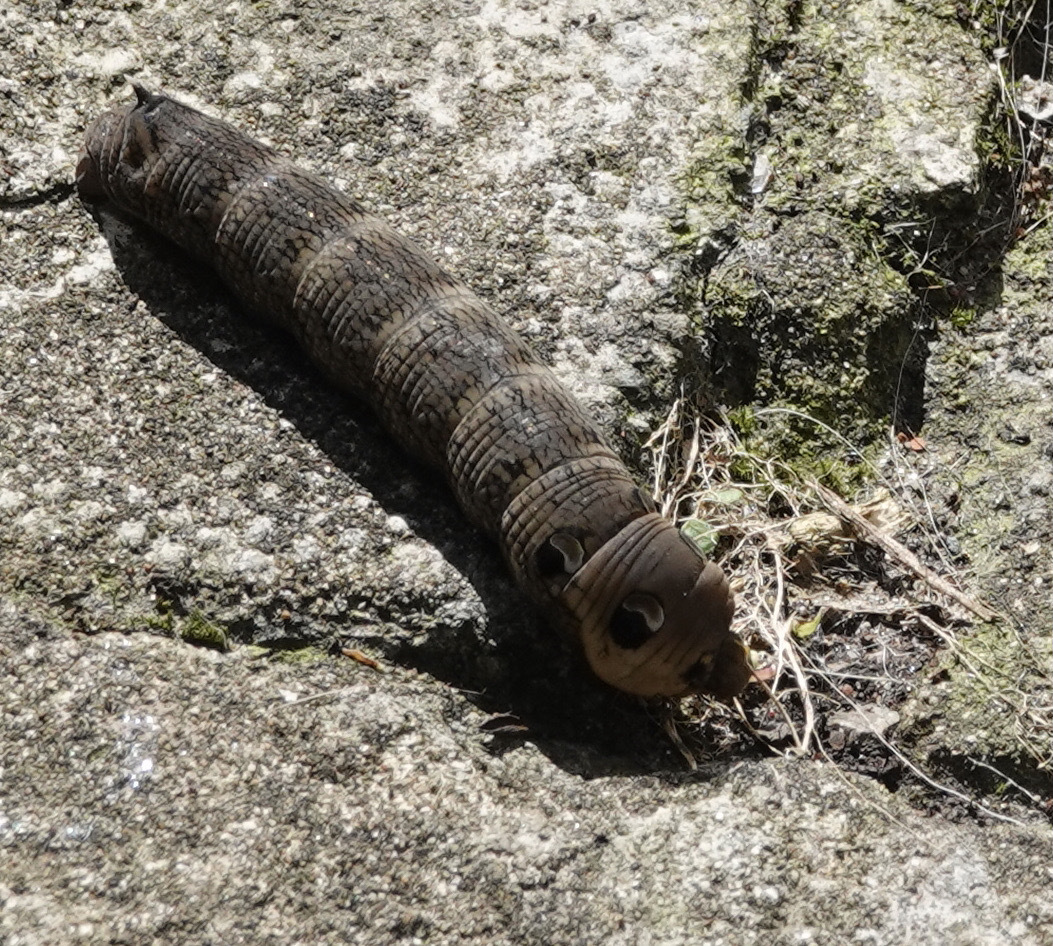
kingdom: Animalia
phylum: Arthropoda
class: Insecta
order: Lepidoptera
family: Sphingidae
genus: Deilephila
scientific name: Deilephila elpenor
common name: Elephant hawk-moth
